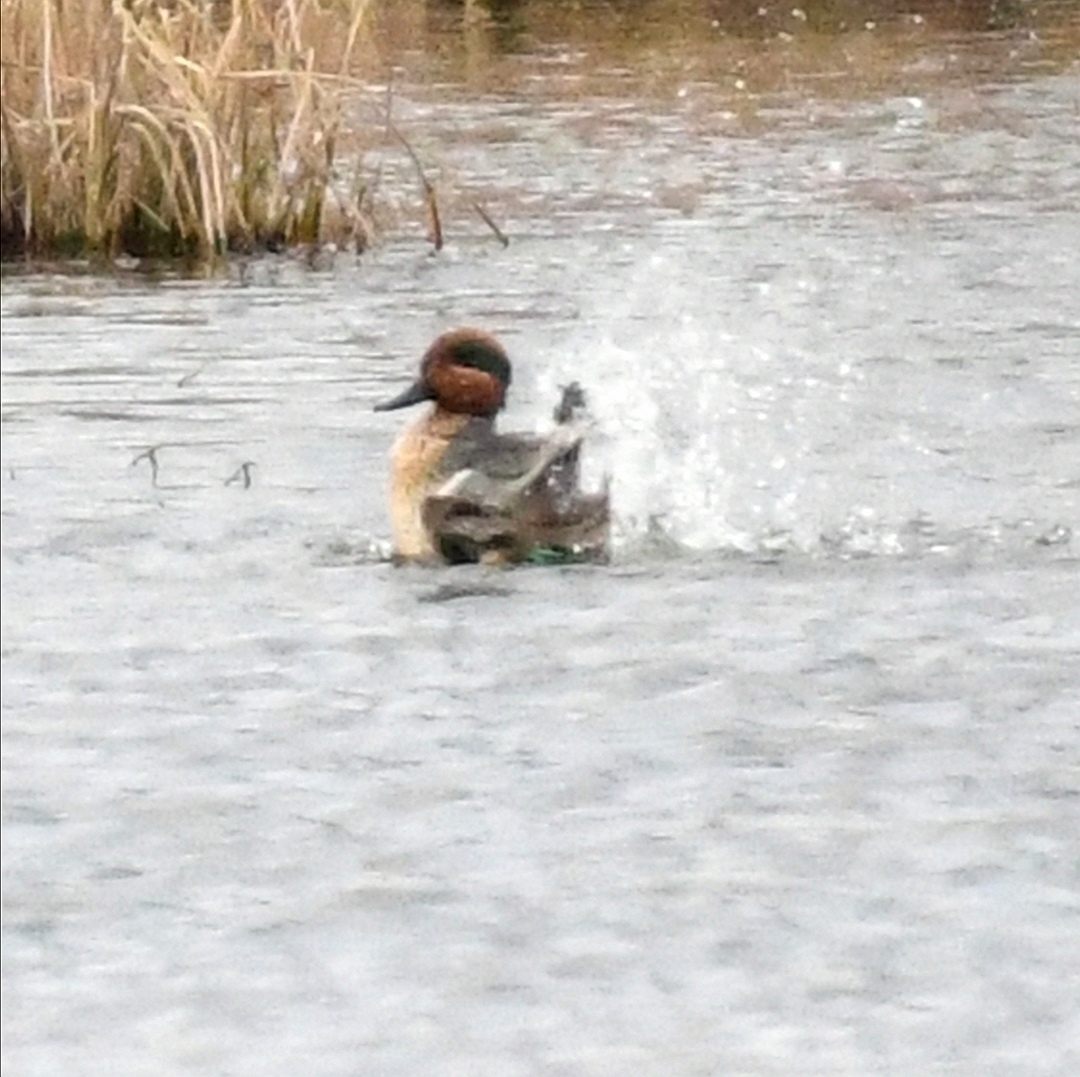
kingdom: Animalia
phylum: Chordata
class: Aves
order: Anseriformes
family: Anatidae
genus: Anas
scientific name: Anas crecca
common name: Eurasian teal
